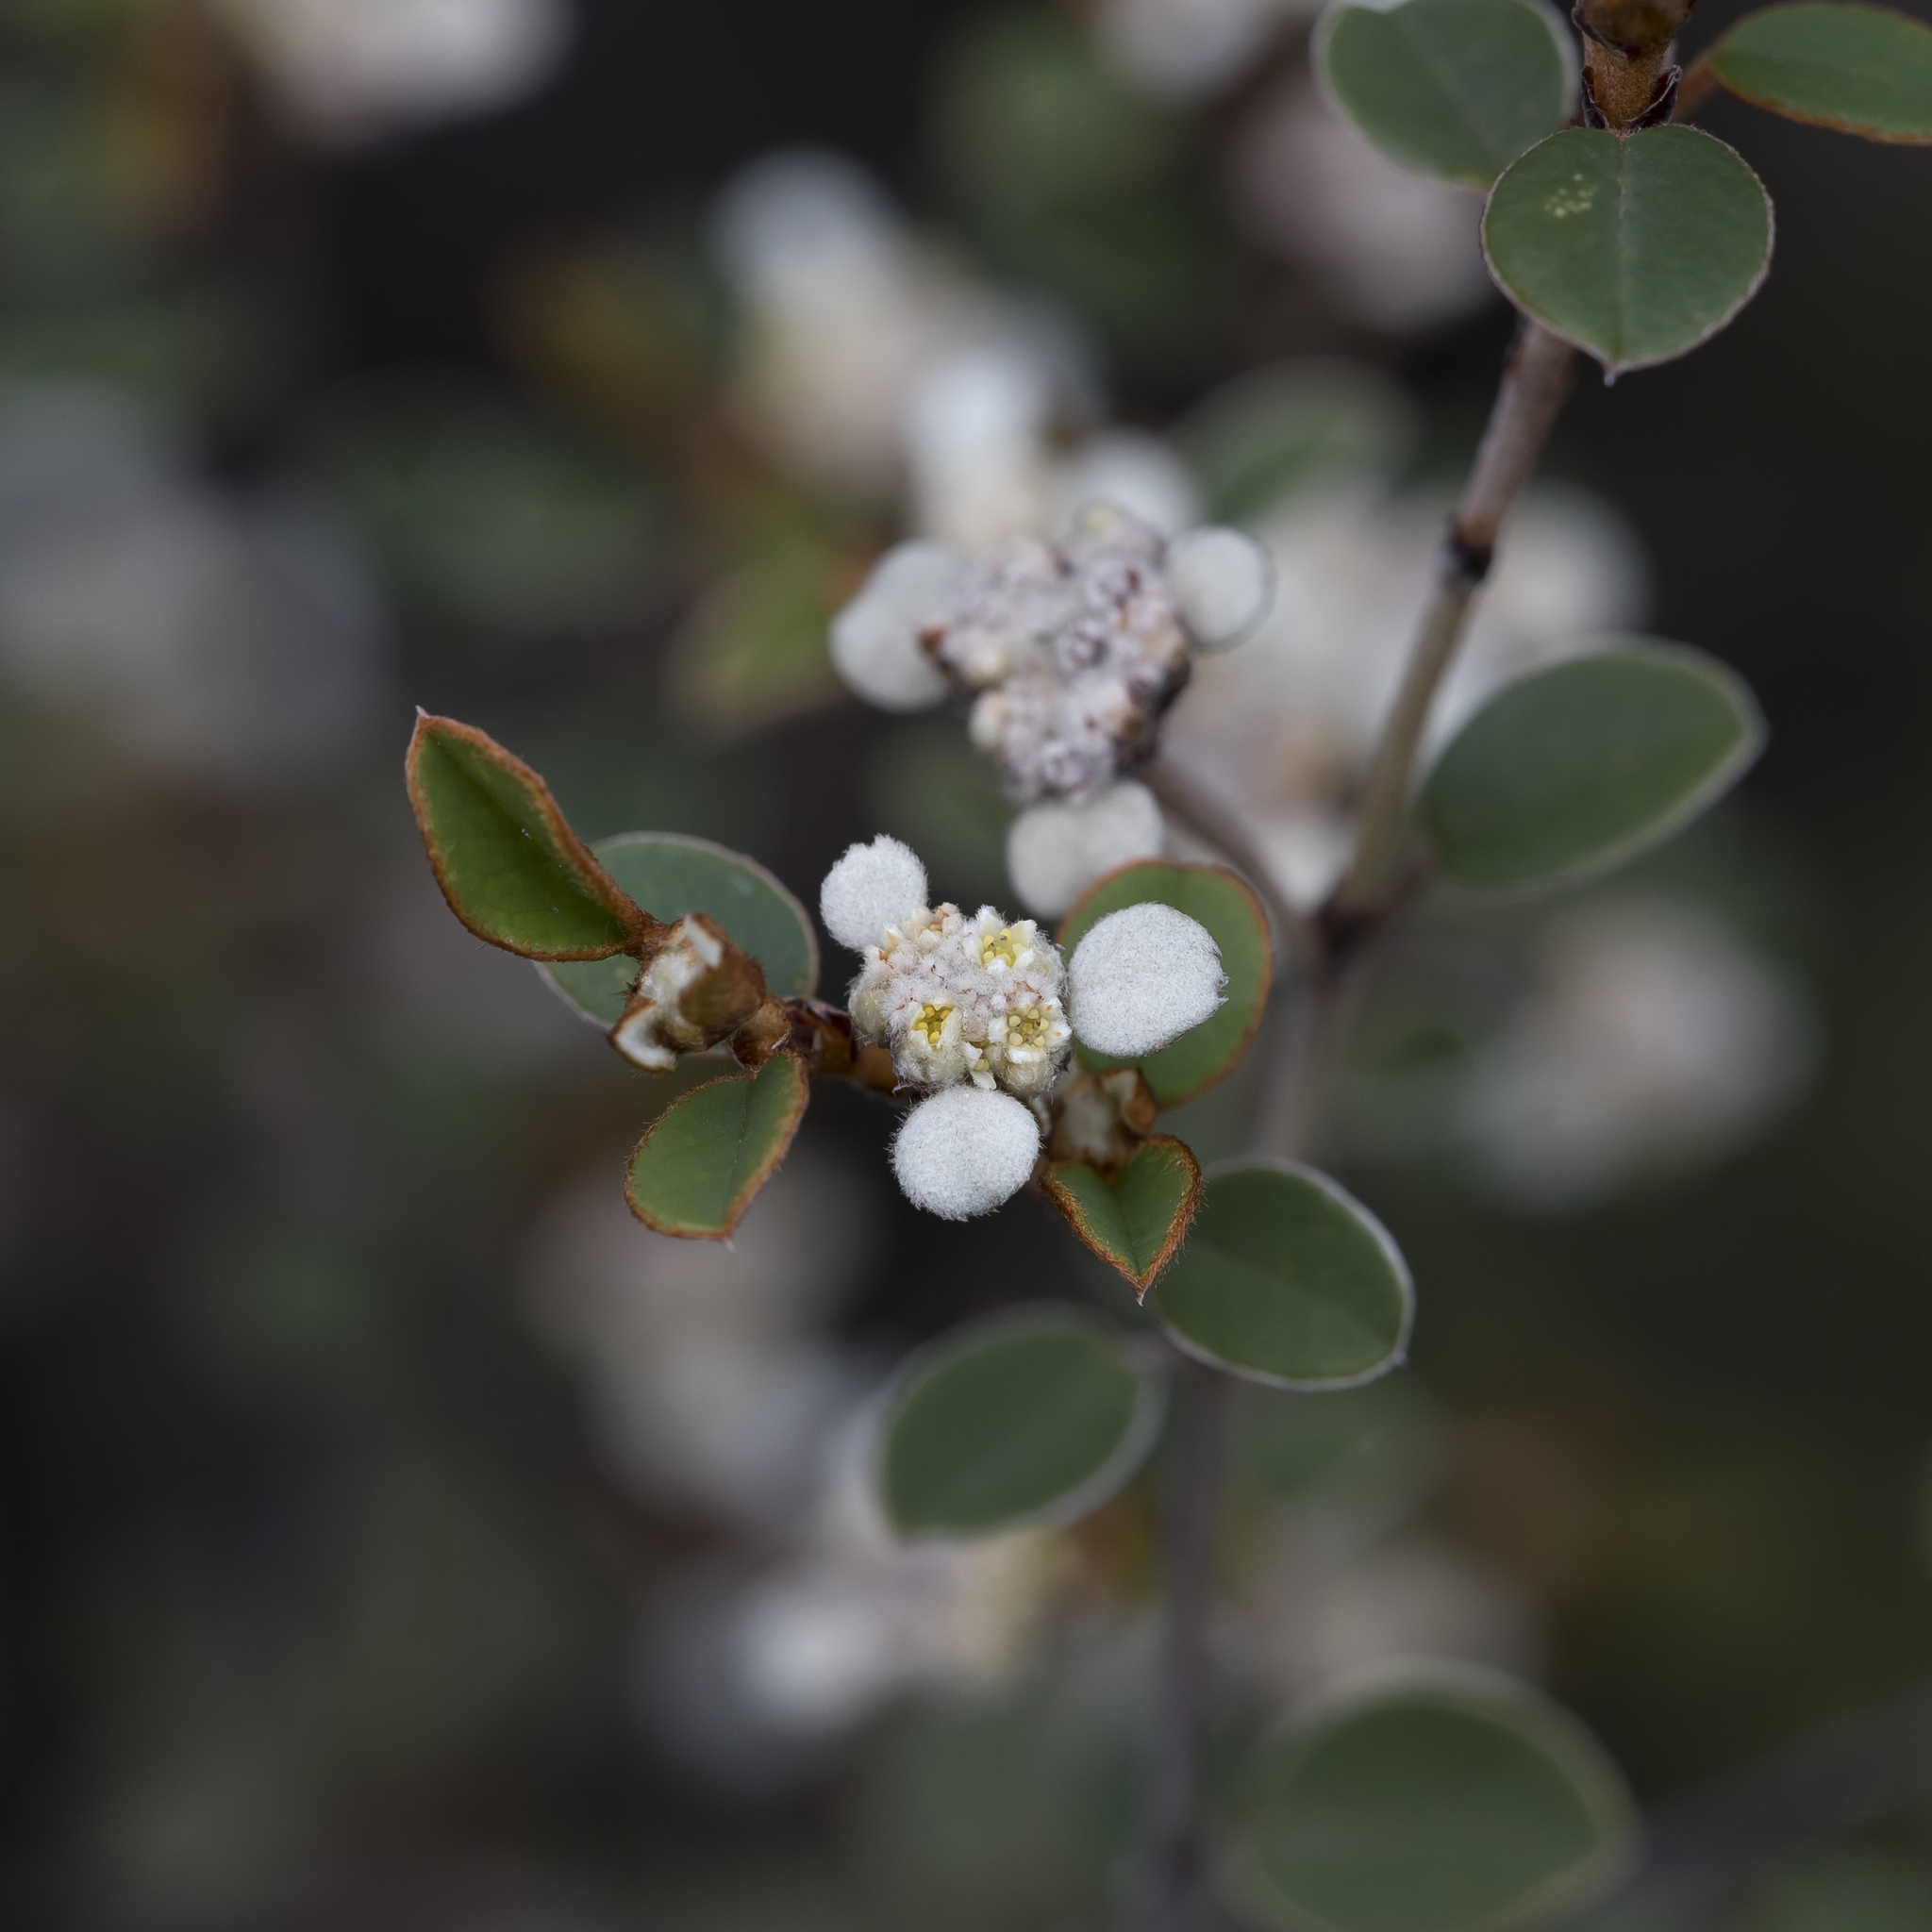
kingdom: Plantae
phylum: Tracheophyta
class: Magnoliopsida
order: Rosales
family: Rhamnaceae
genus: Spyridium
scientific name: Spyridium thymifolium
